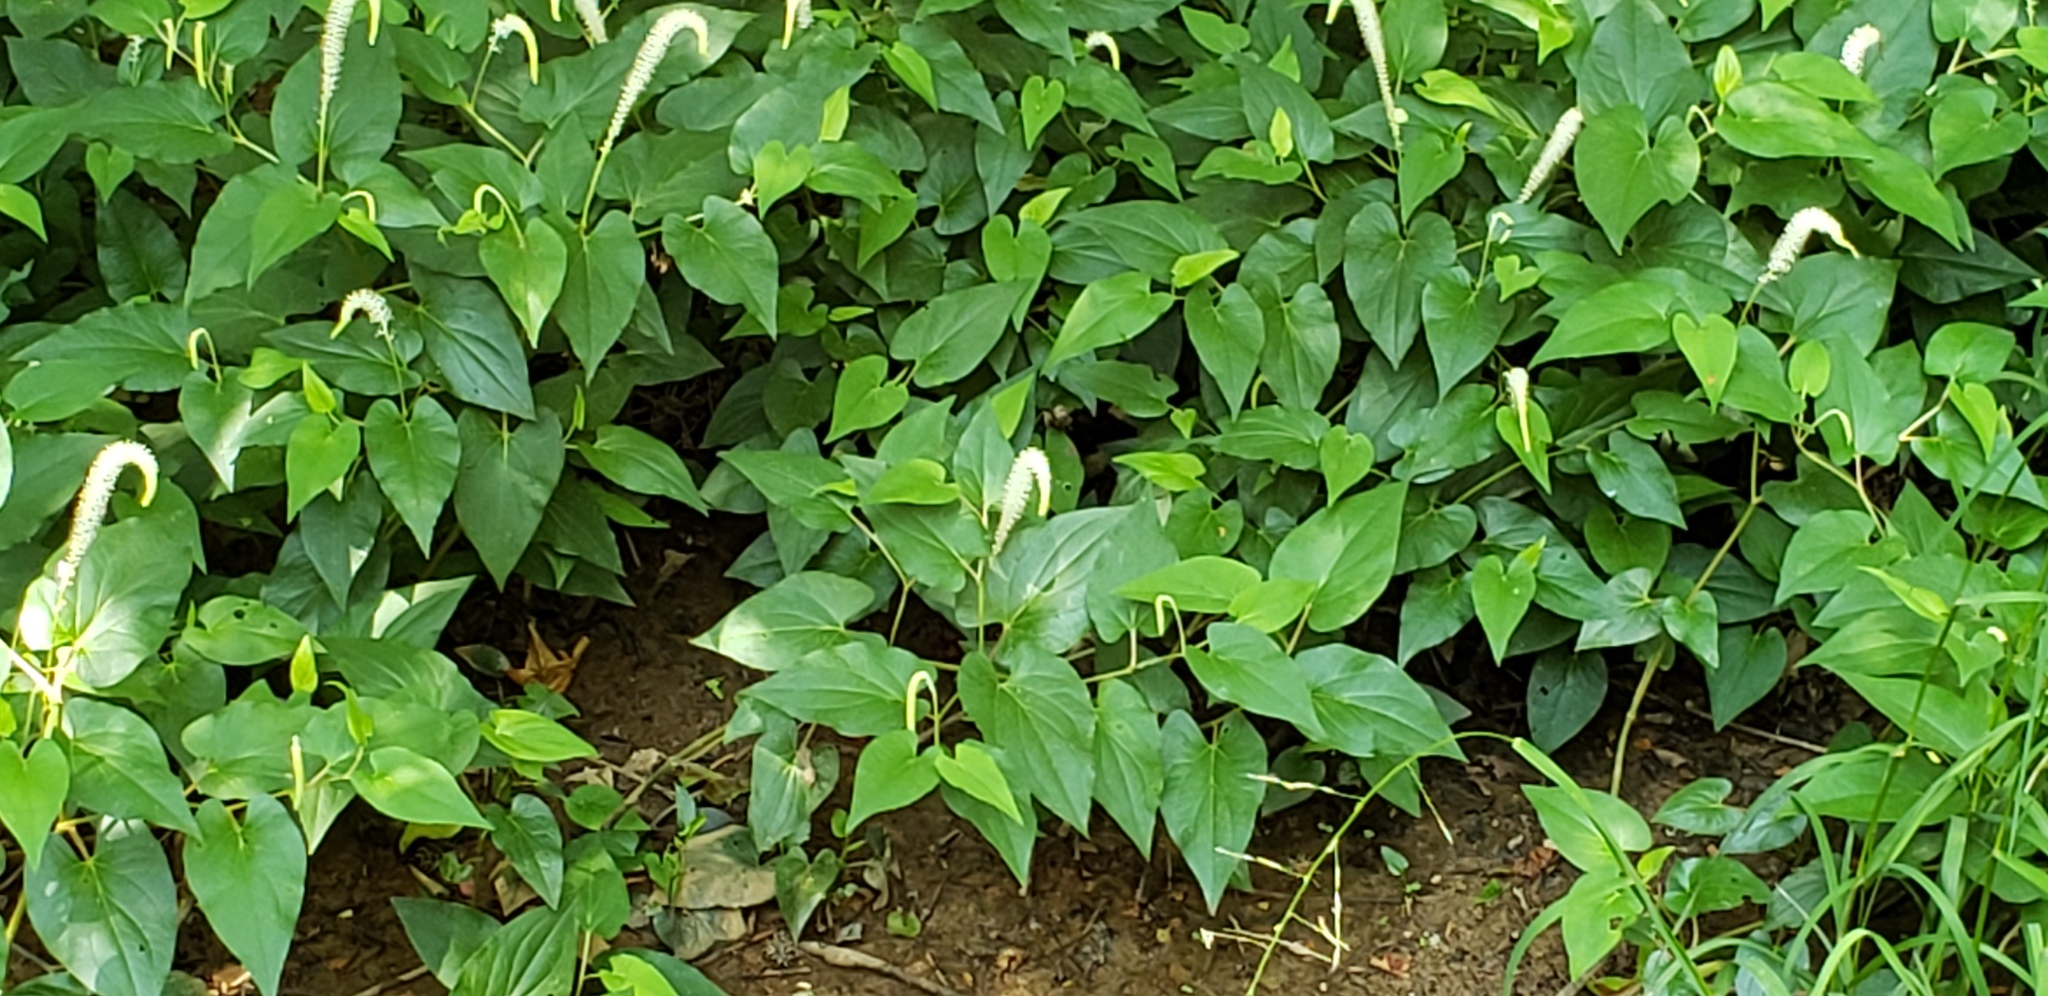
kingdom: Plantae
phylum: Tracheophyta
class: Magnoliopsida
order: Piperales
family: Saururaceae
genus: Saururus
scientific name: Saururus cernuus
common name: Lizard's-tail
